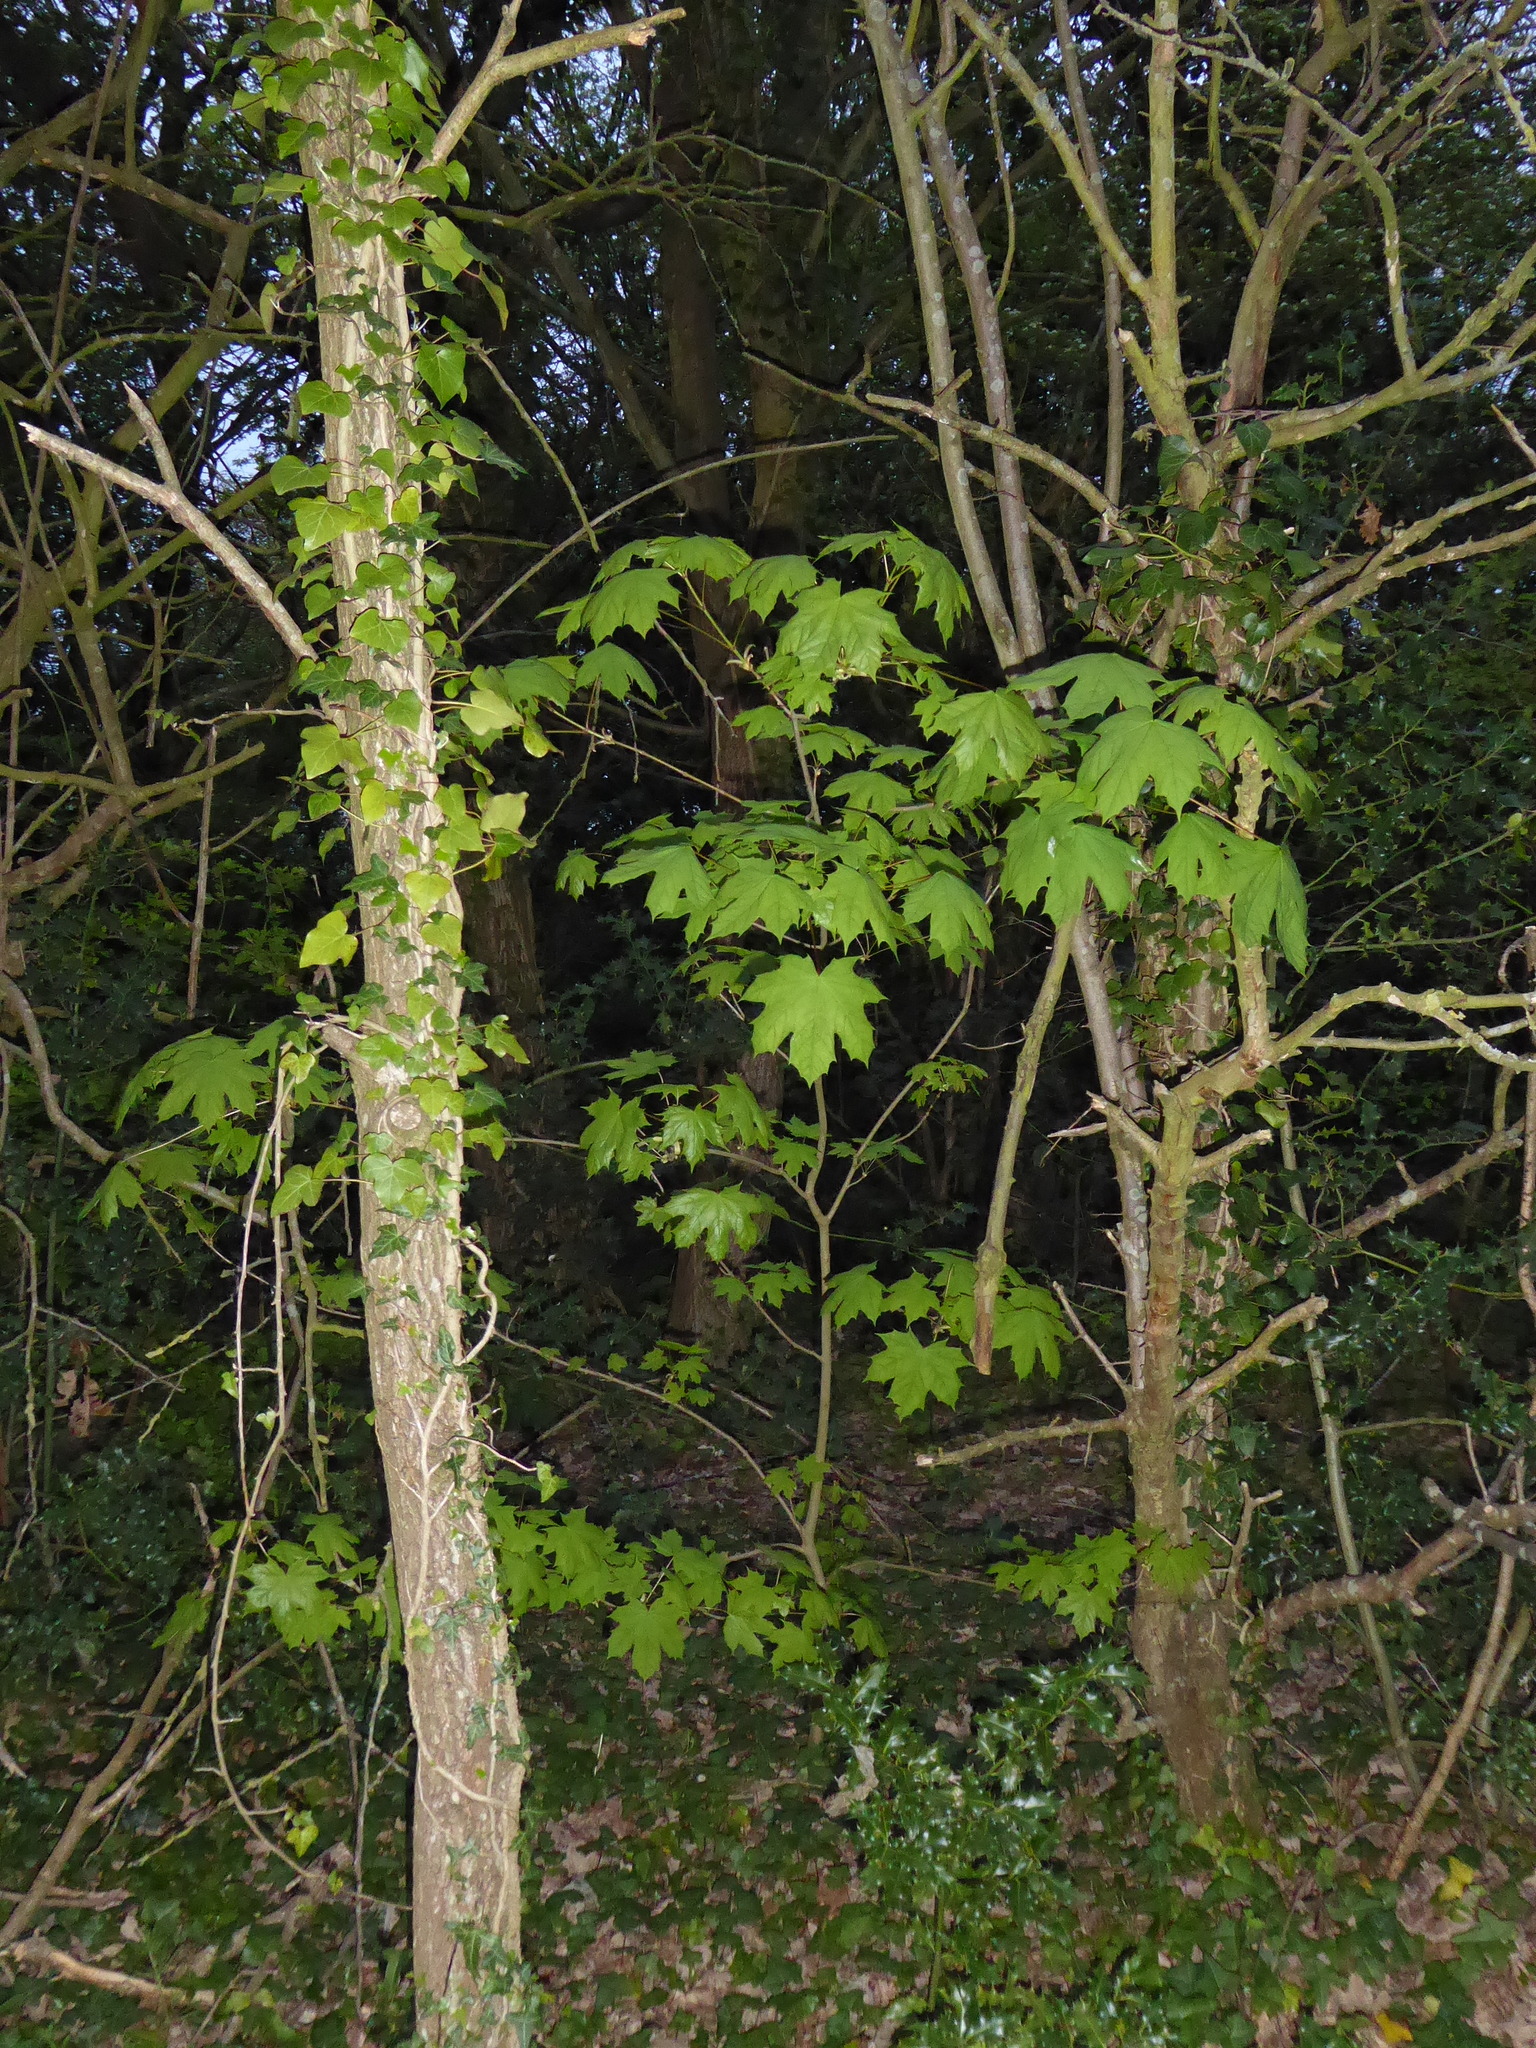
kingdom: Plantae
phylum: Tracheophyta
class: Magnoliopsida
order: Sapindales
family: Sapindaceae
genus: Acer
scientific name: Acer platanoides
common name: Norway maple
